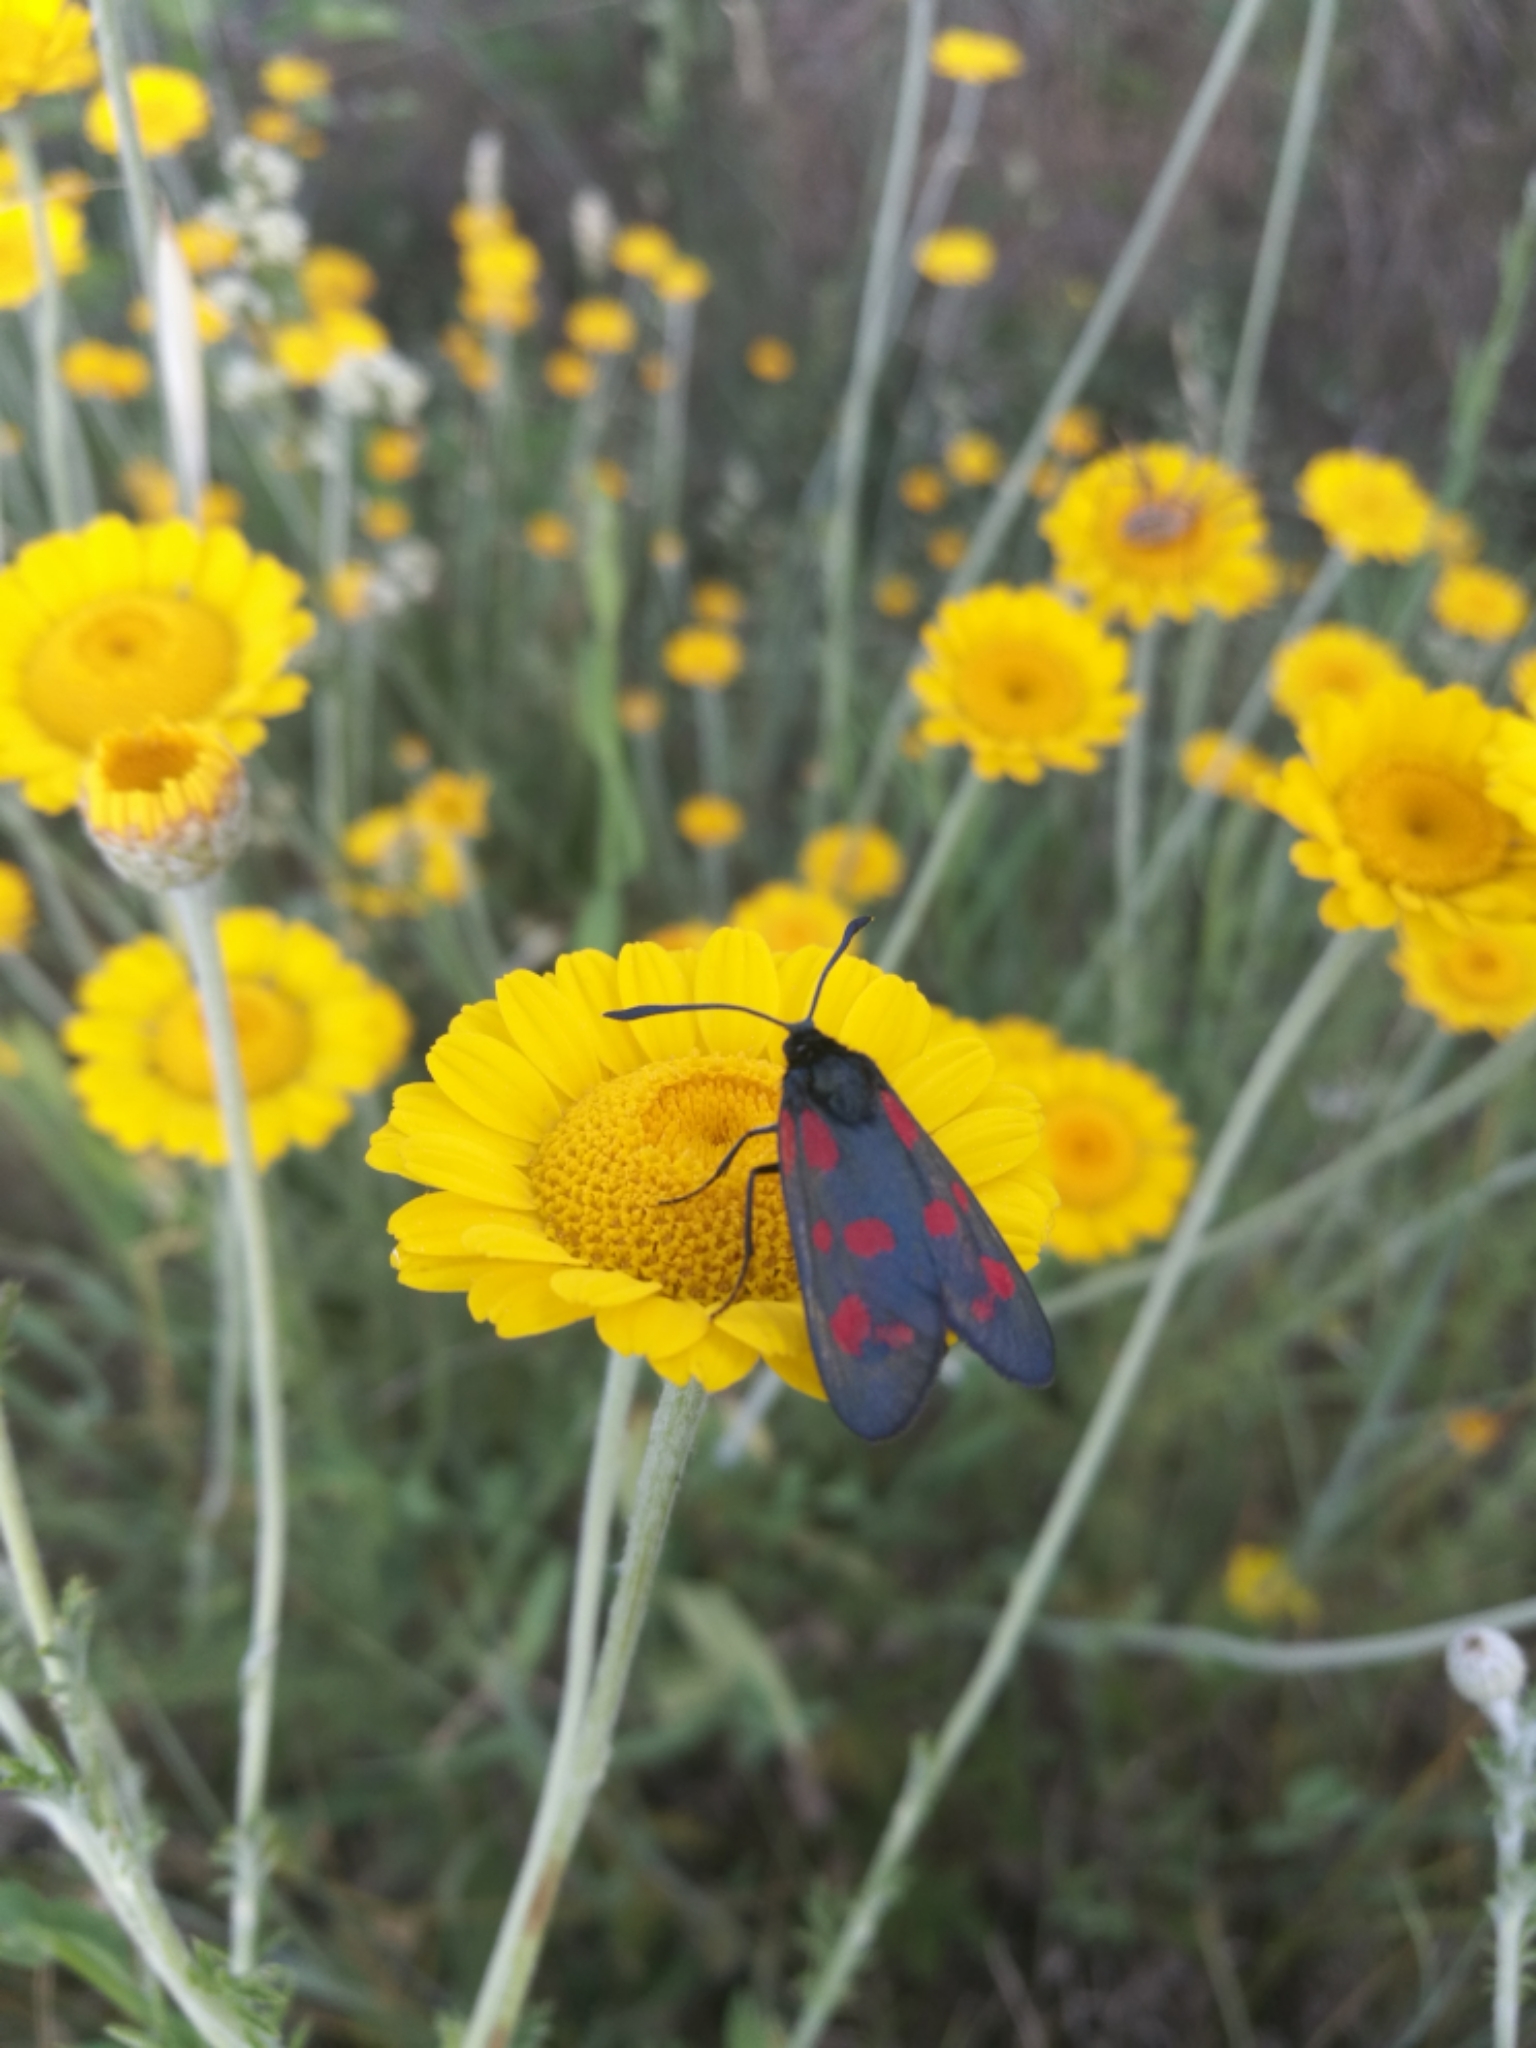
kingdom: Animalia
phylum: Arthropoda
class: Insecta
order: Lepidoptera
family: Zygaenidae
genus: Zygaena
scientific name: Zygaena filipendulae
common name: Six-spot burnet
